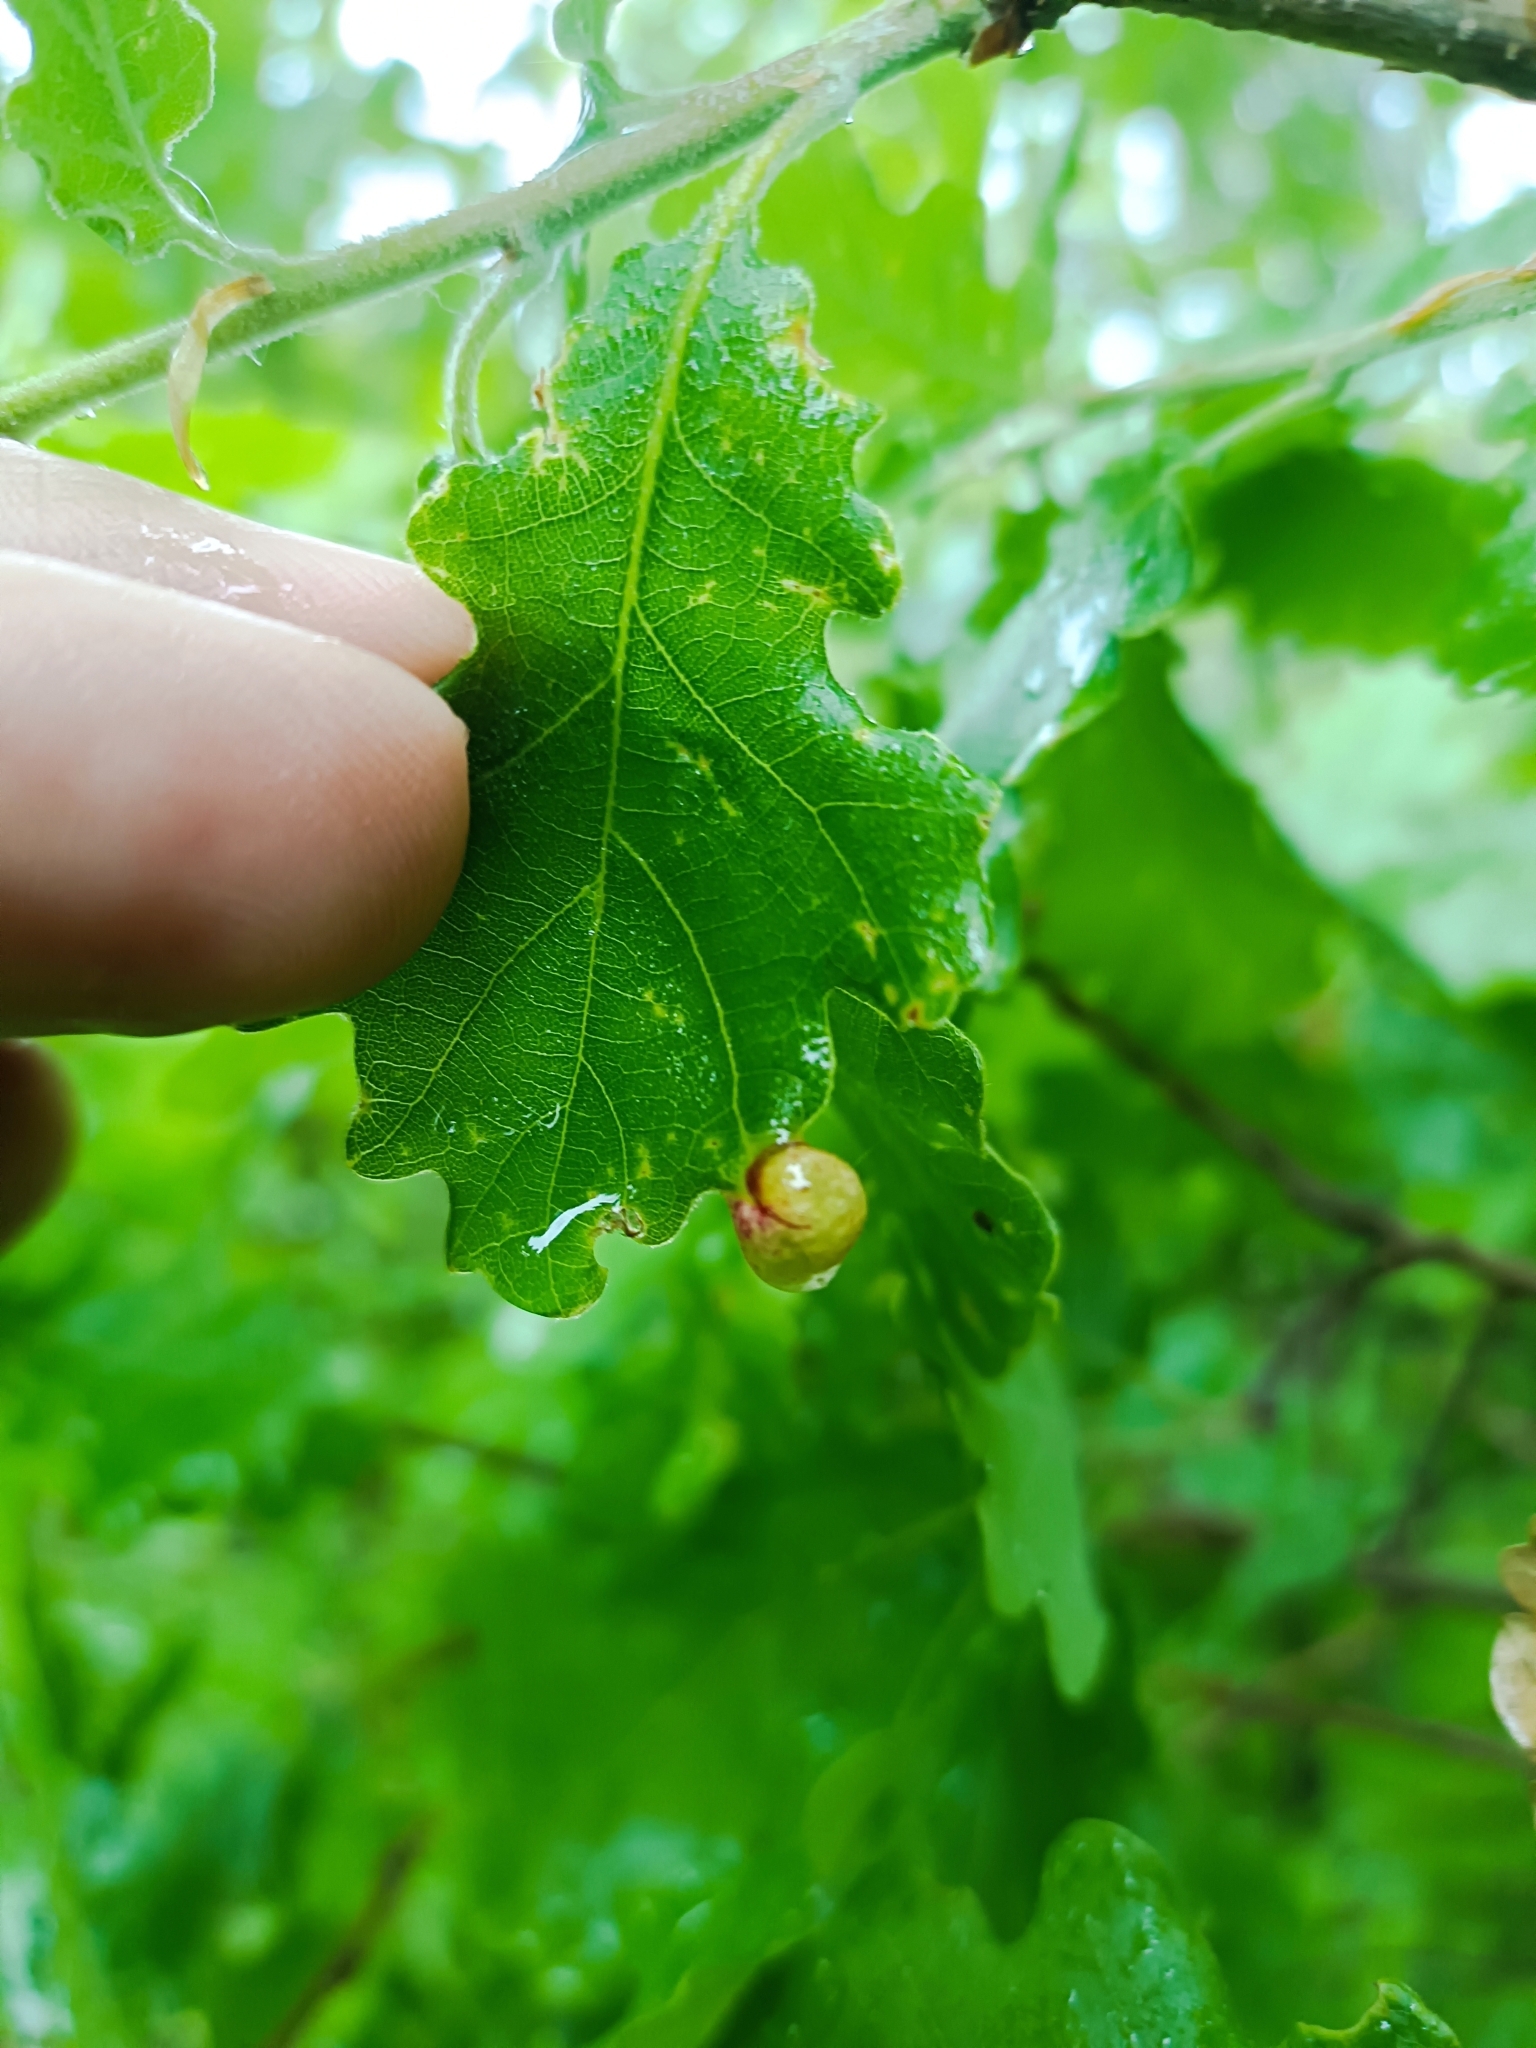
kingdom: Animalia
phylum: Arthropoda
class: Insecta
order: Hymenoptera
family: Cynipidae
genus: Neuroterus
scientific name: Neuroterus quercusbaccarum
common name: Common spangle gall
